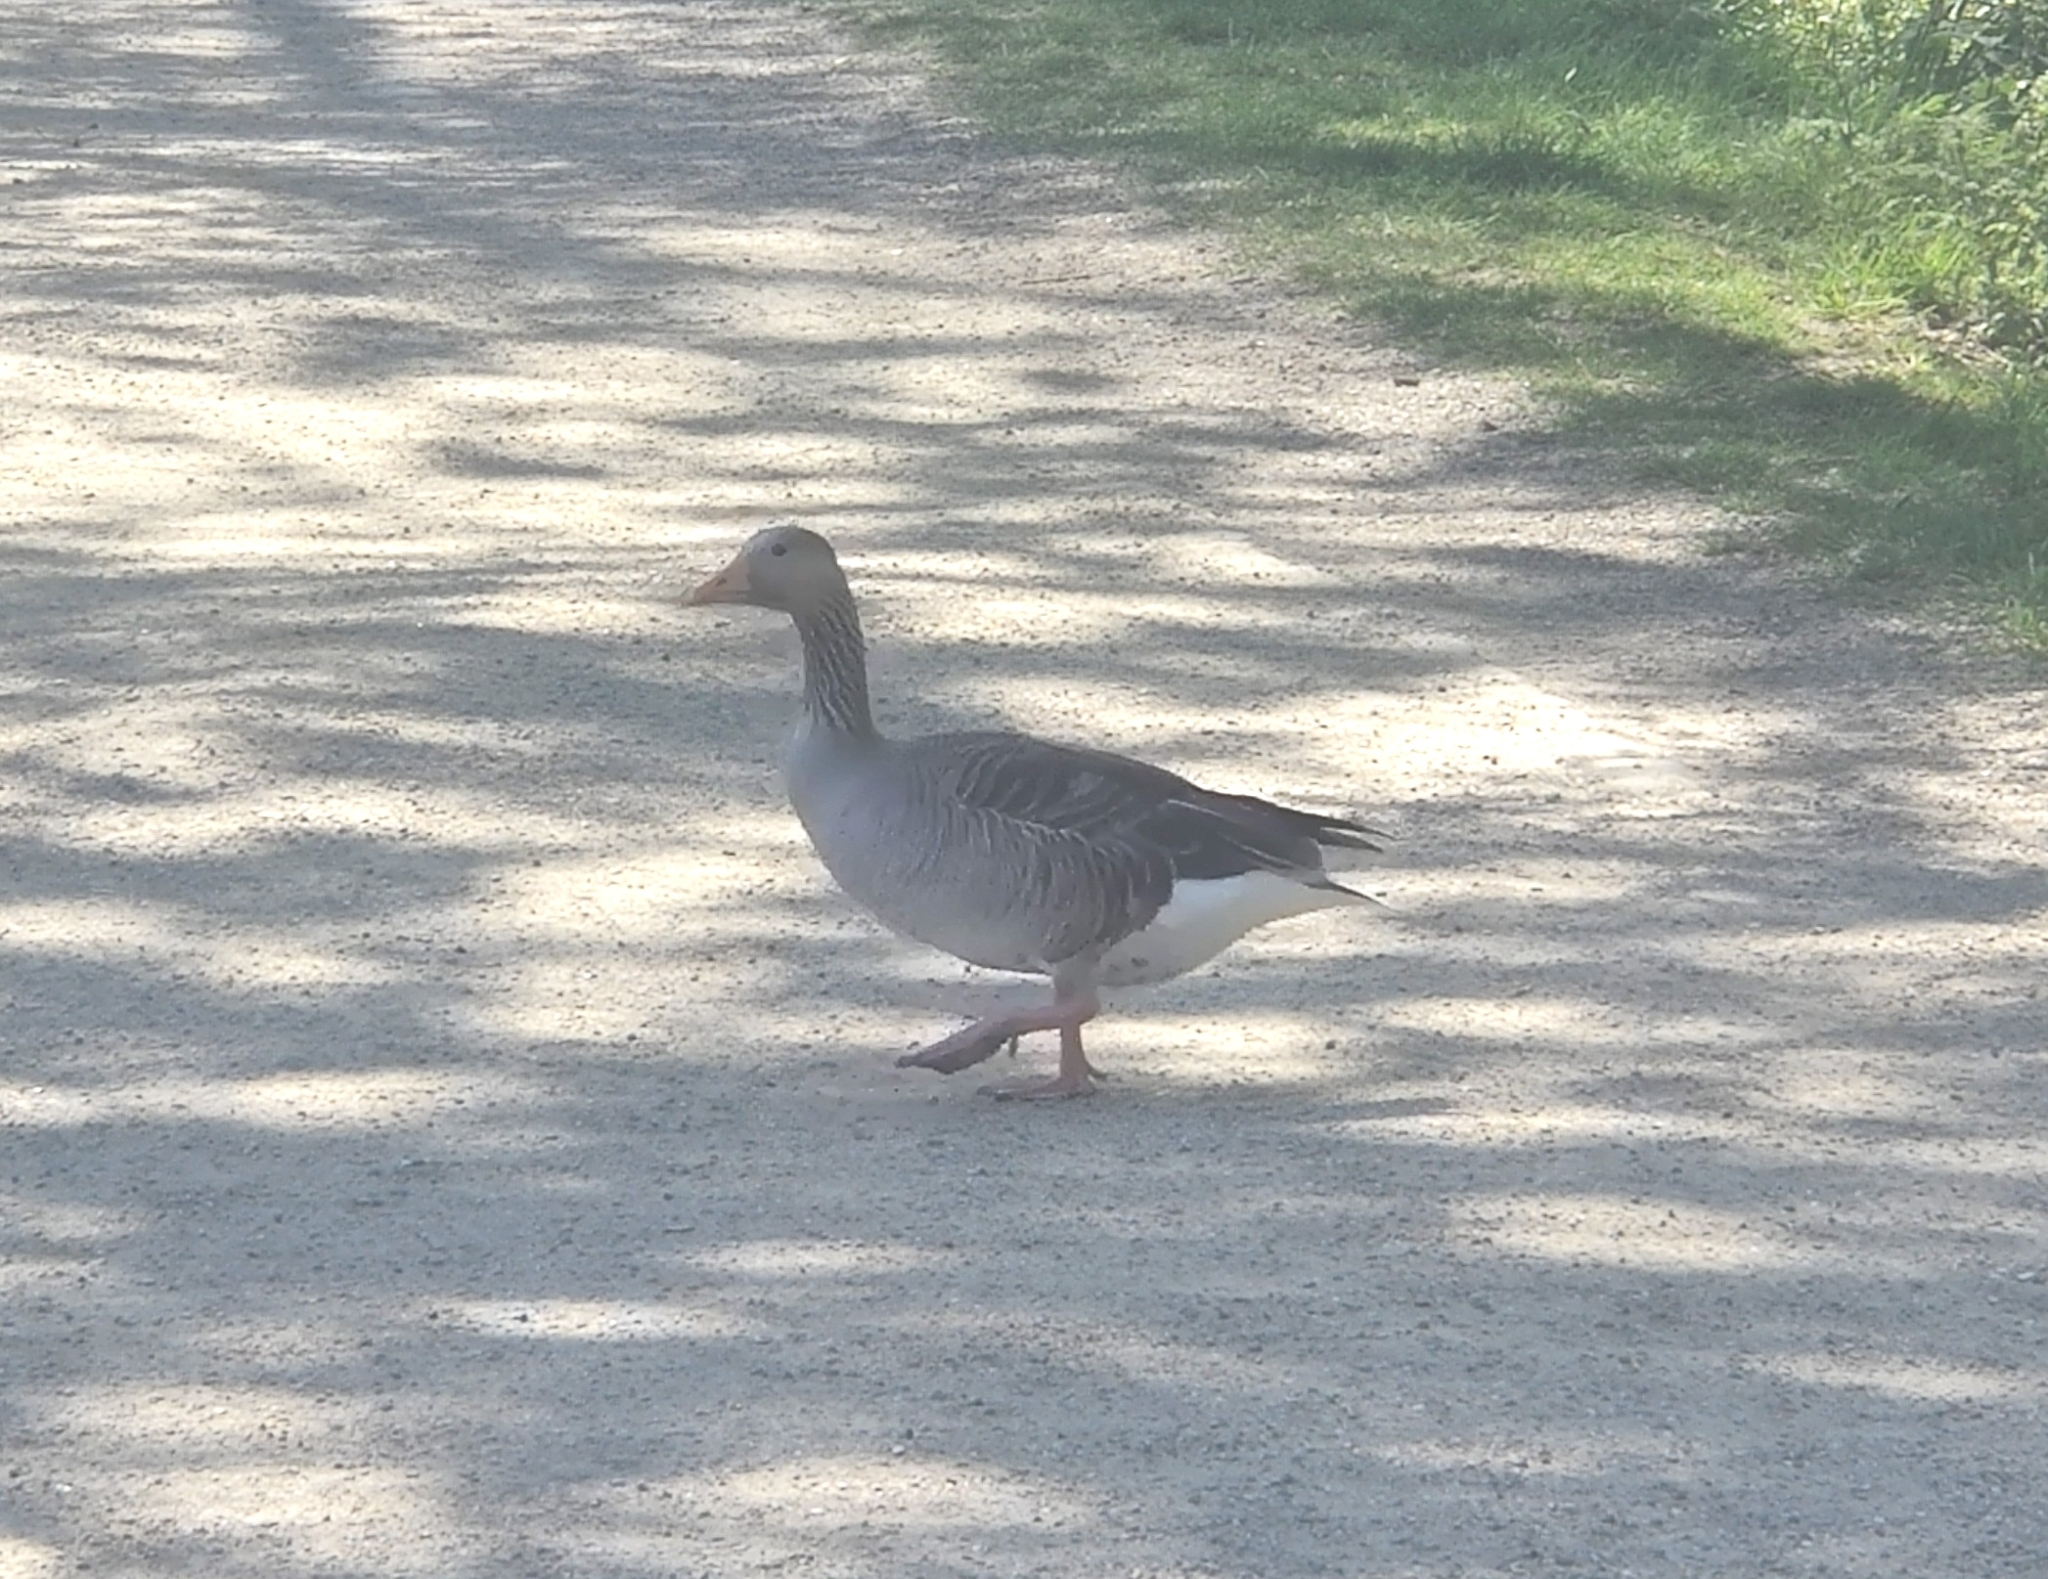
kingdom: Animalia
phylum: Chordata
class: Aves
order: Anseriformes
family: Anatidae
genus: Anser
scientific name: Anser anser
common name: Greylag goose
